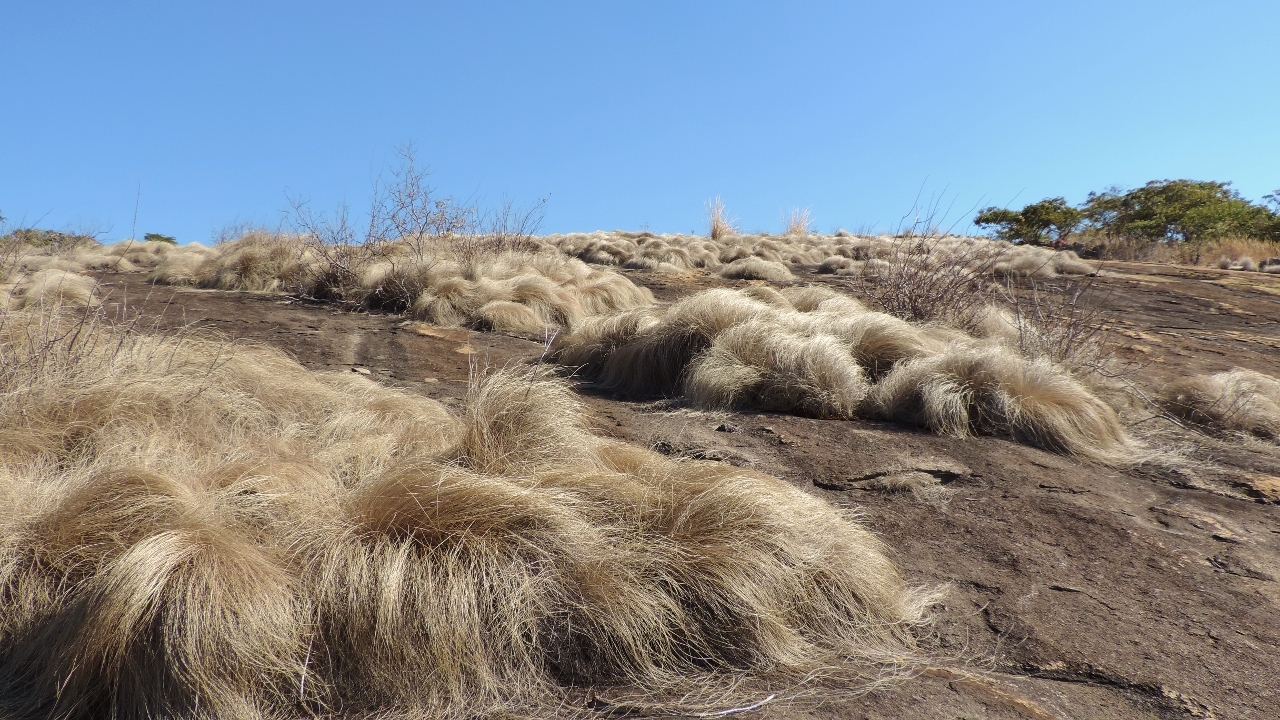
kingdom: Plantae
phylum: Tracheophyta
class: Liliopsida
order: Poales
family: Cyperaceae
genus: Coleochloa
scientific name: Coleochloa setifera
